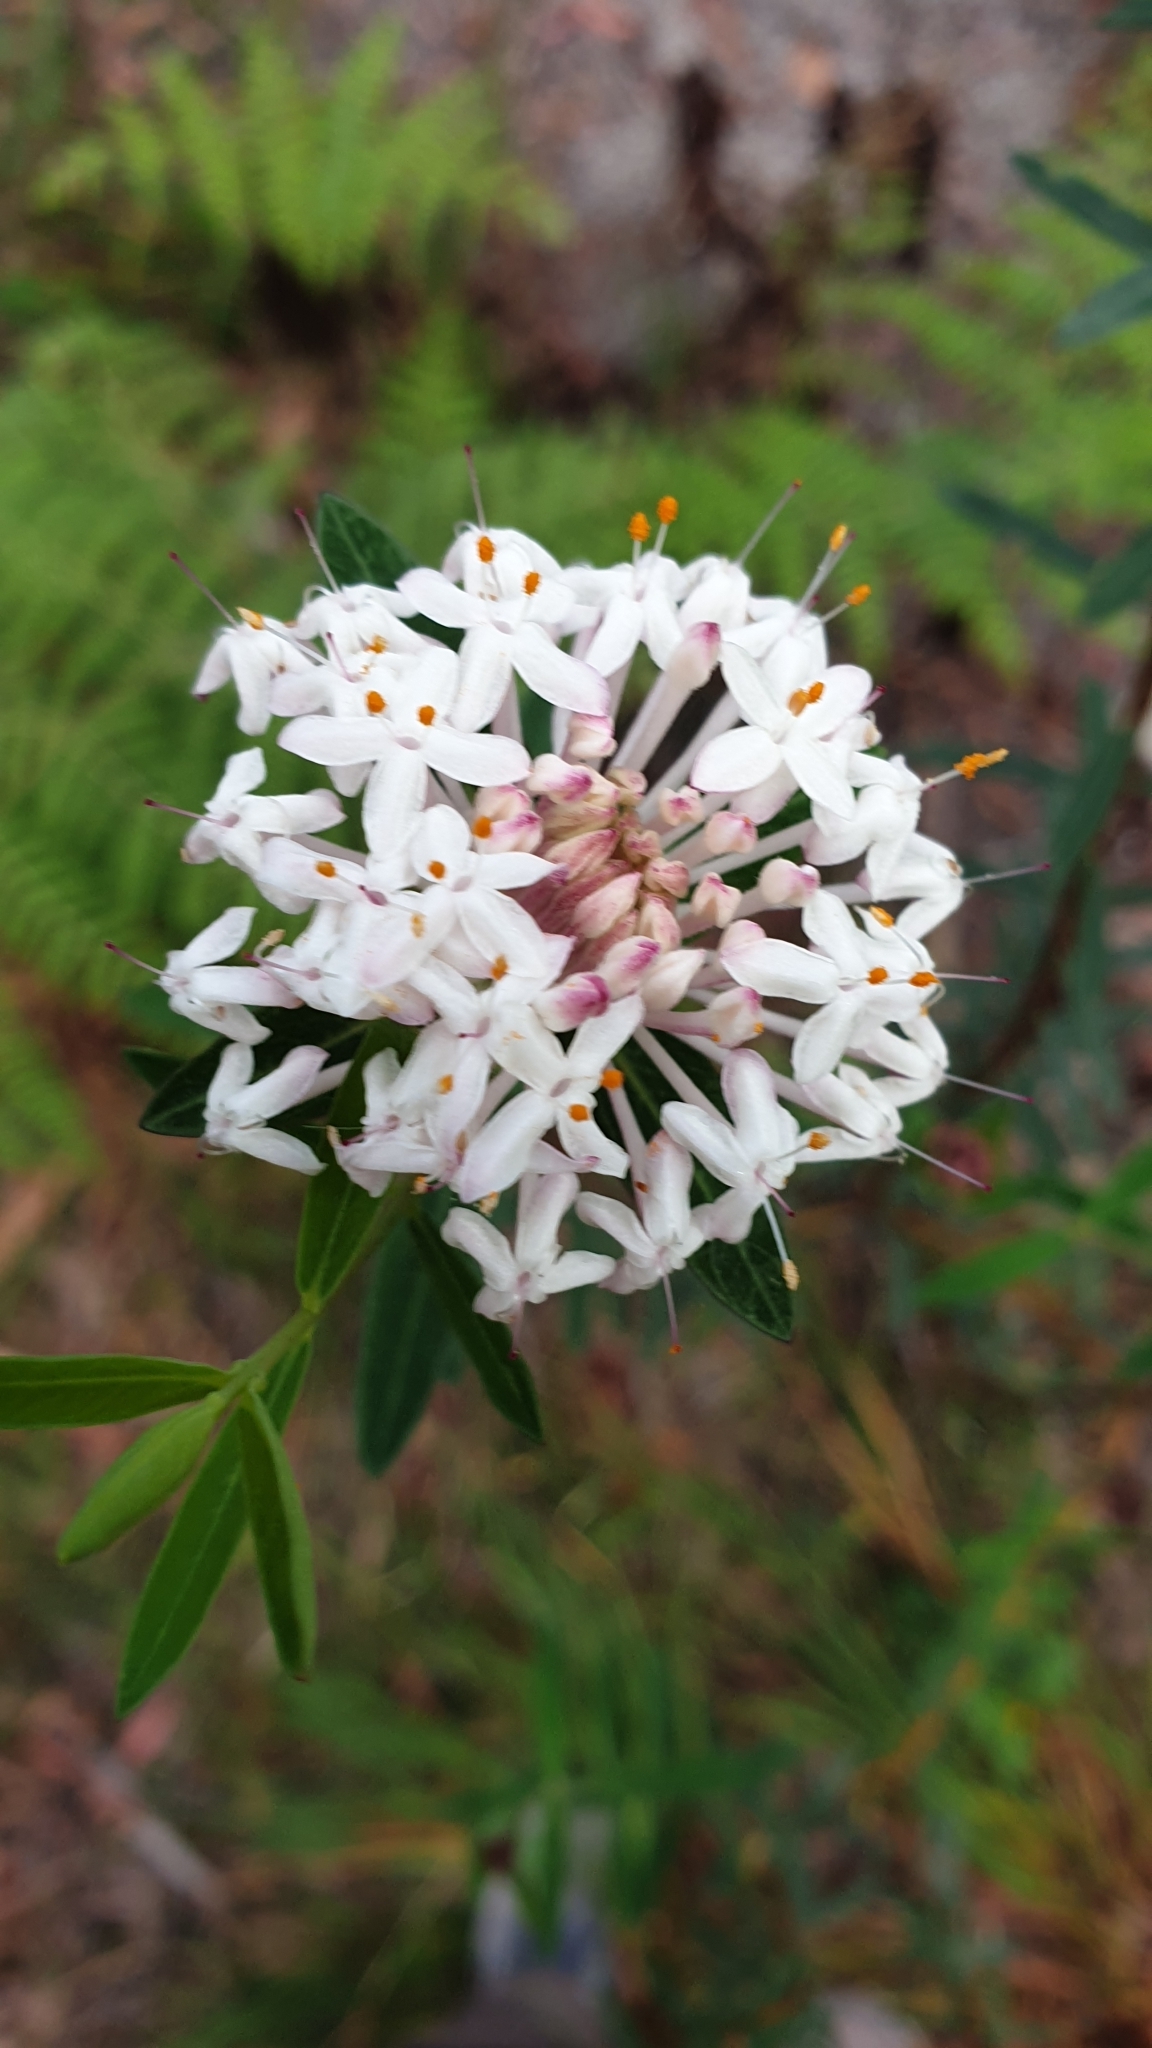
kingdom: Plantae
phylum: Tracheophyta
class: Magnoliopsida
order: Malvales
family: Thymelaeaceae
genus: Pimelea
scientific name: Pimelea linifolia
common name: Queen-of-the-bush
